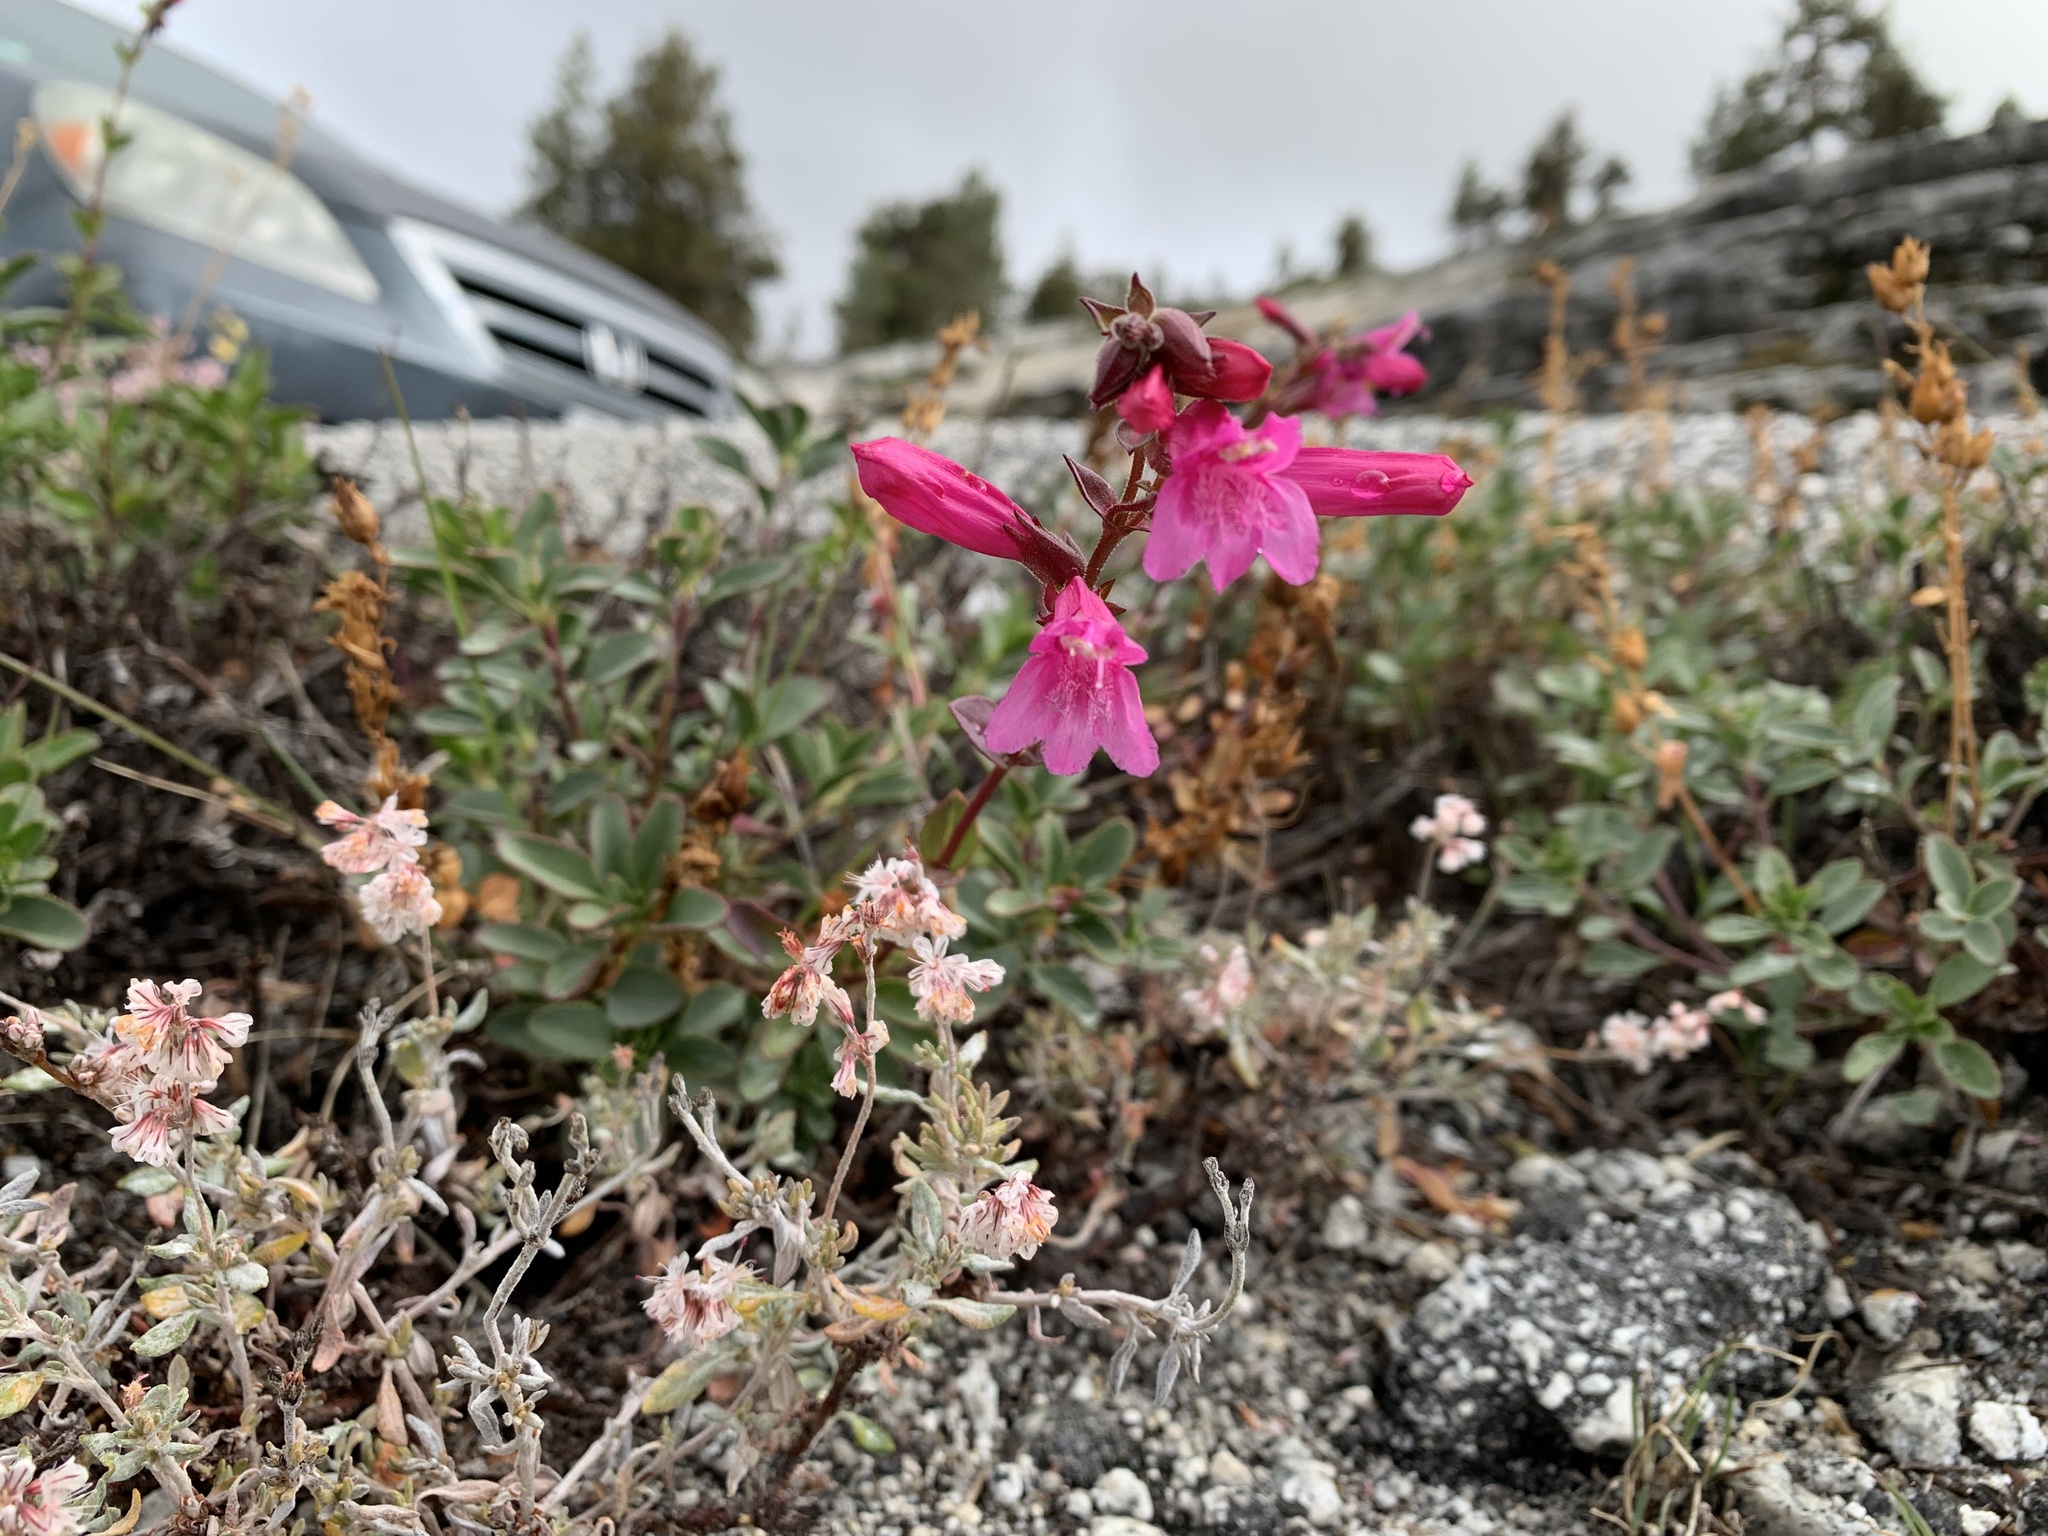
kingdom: Plantae
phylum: Tracheophyta
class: Magnoliopsida
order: Lamiales
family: Plantaginaceae
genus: Penstemon
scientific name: Penstemon newberryi
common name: Mountain-pride
